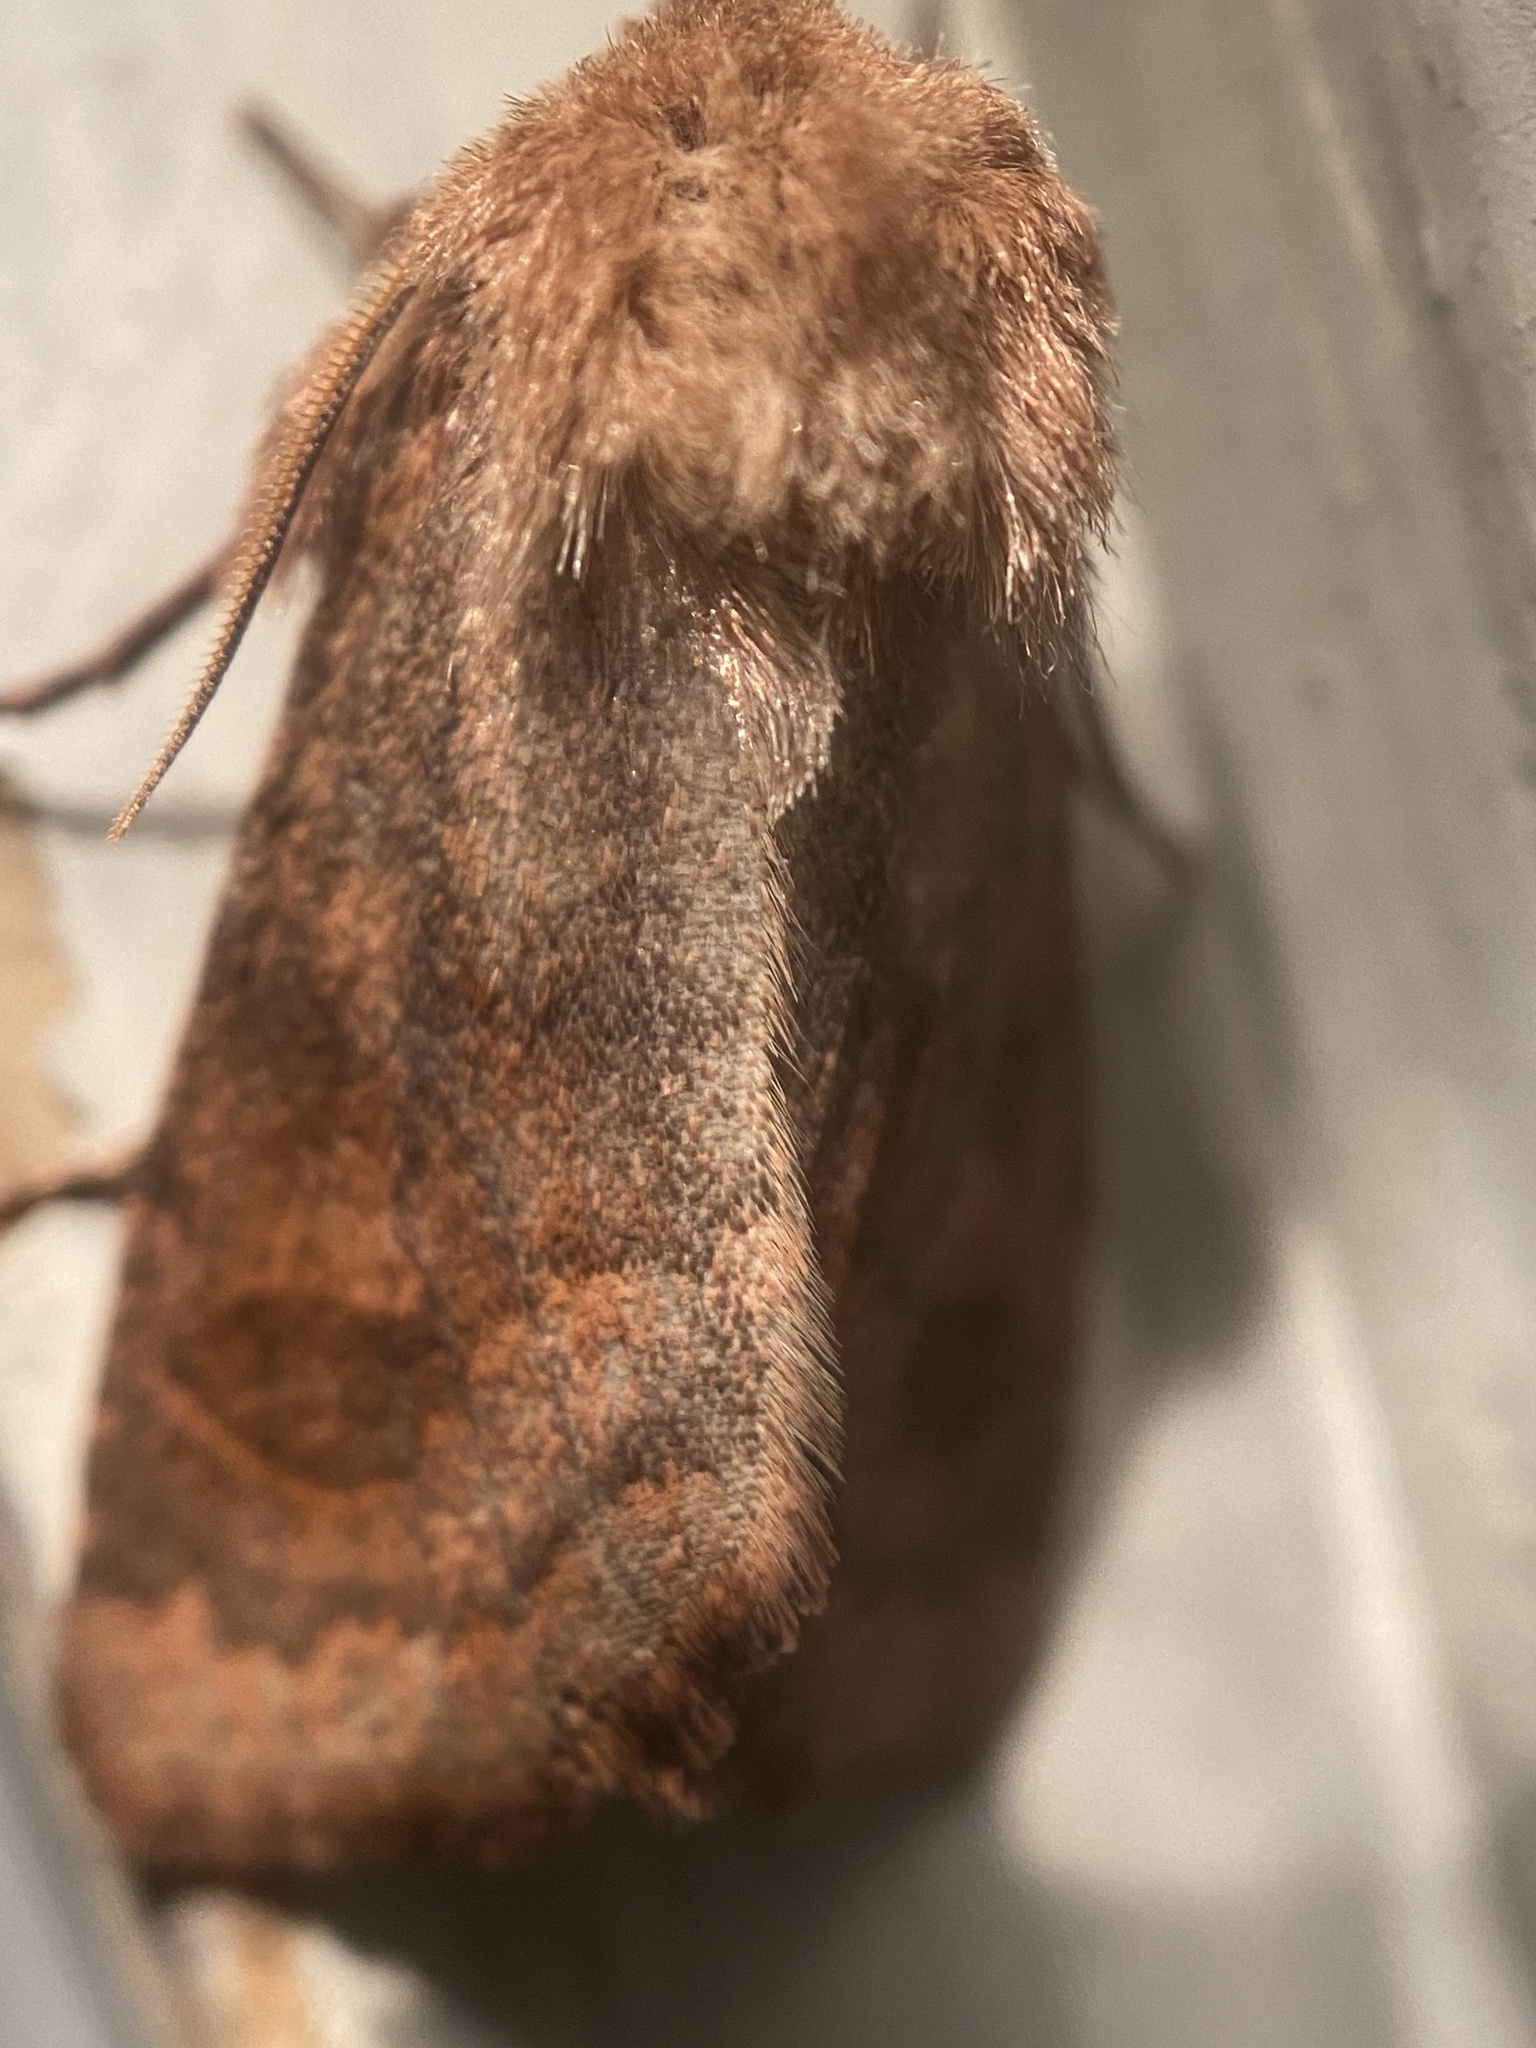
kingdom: Animalia
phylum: Arthropoda
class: Insecta
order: Lepidoptera
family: Noctuidae
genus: Nephelodes
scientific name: Nephelodes minians
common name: Bronzed cutworm
